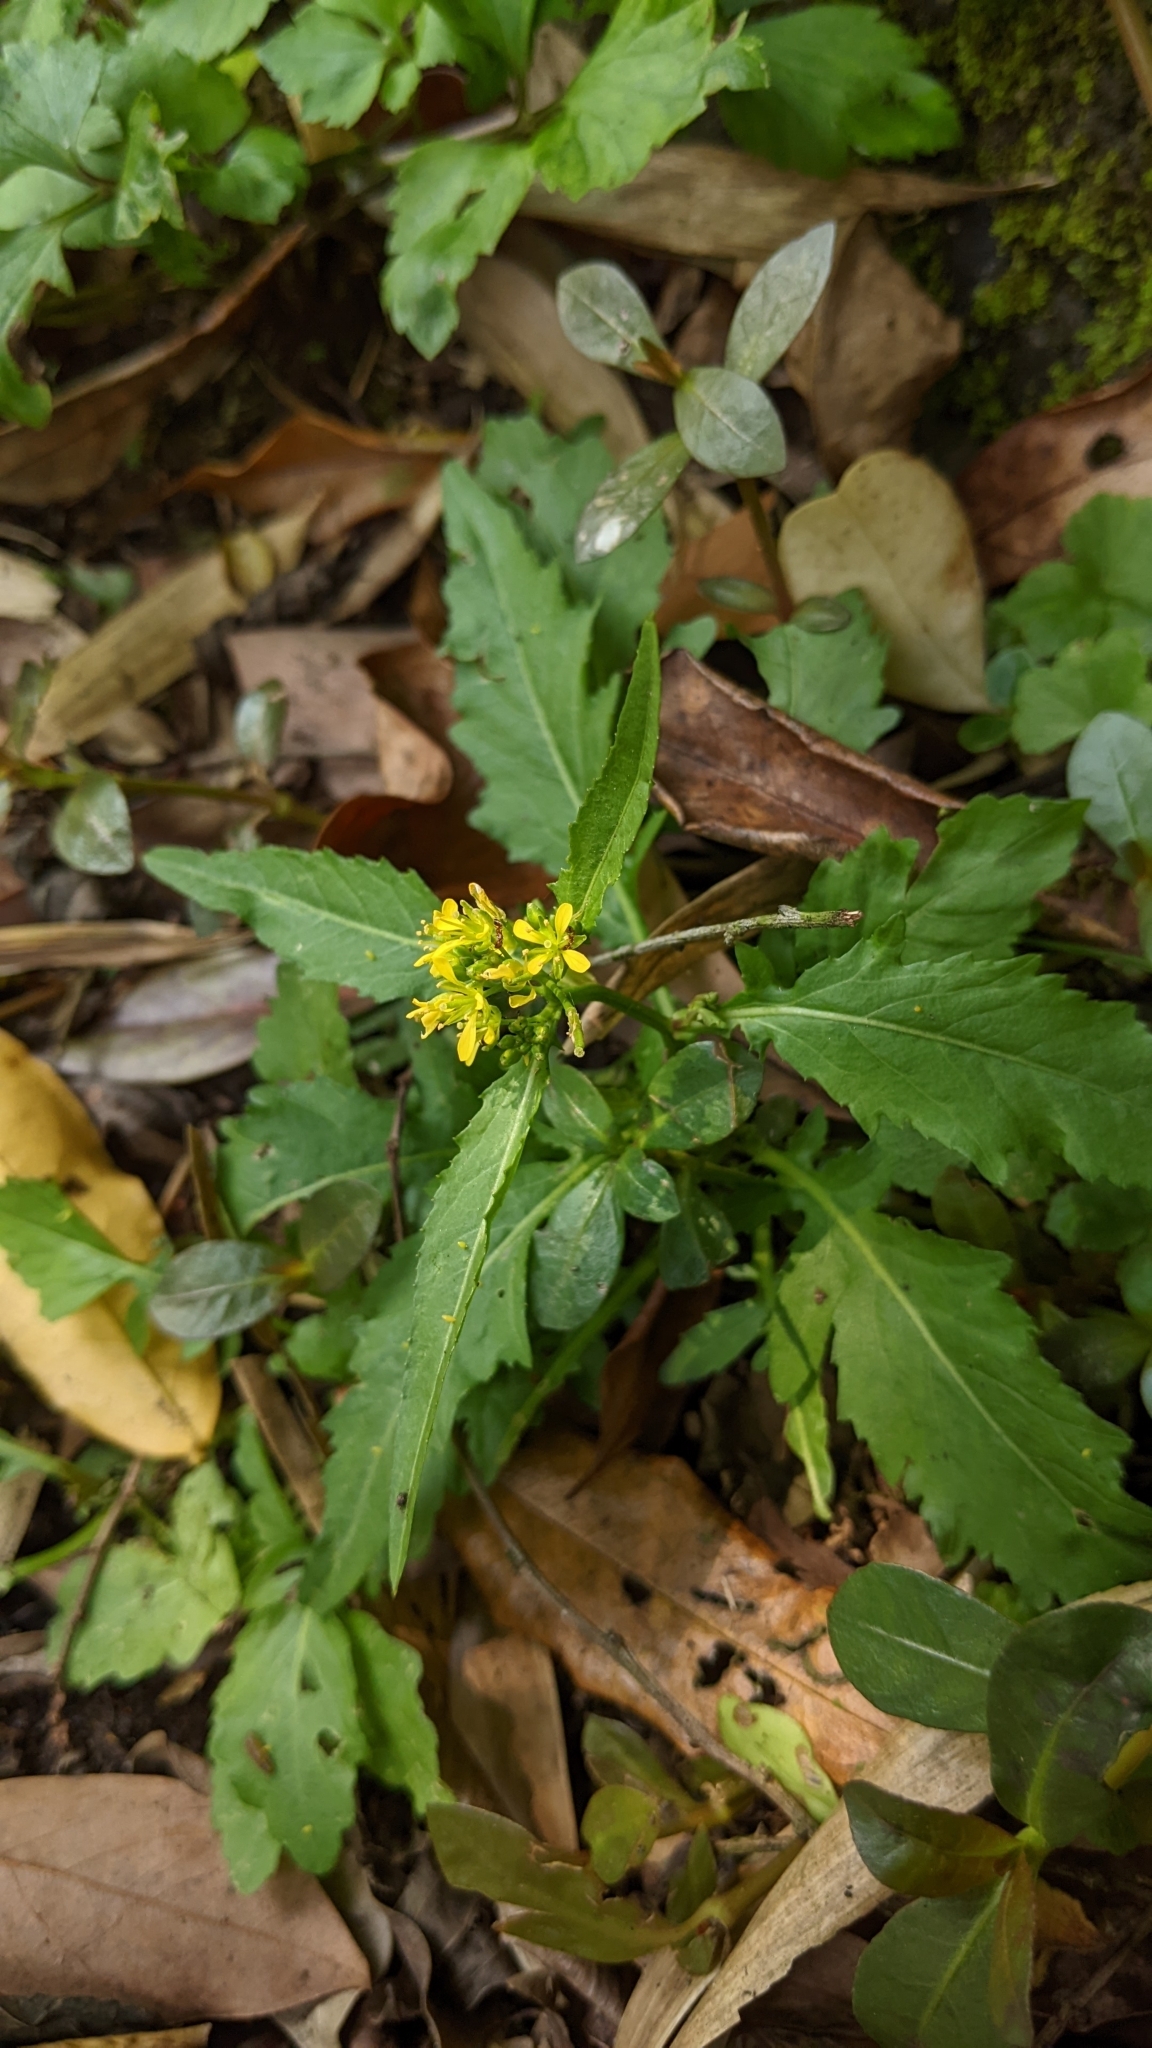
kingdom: Plantae
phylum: Tracheophyta
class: Magnoliopsida
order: Brassicales
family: Brassicaceae
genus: Rorippa
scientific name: Rorippa indica
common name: Variableleaf yellowcress
